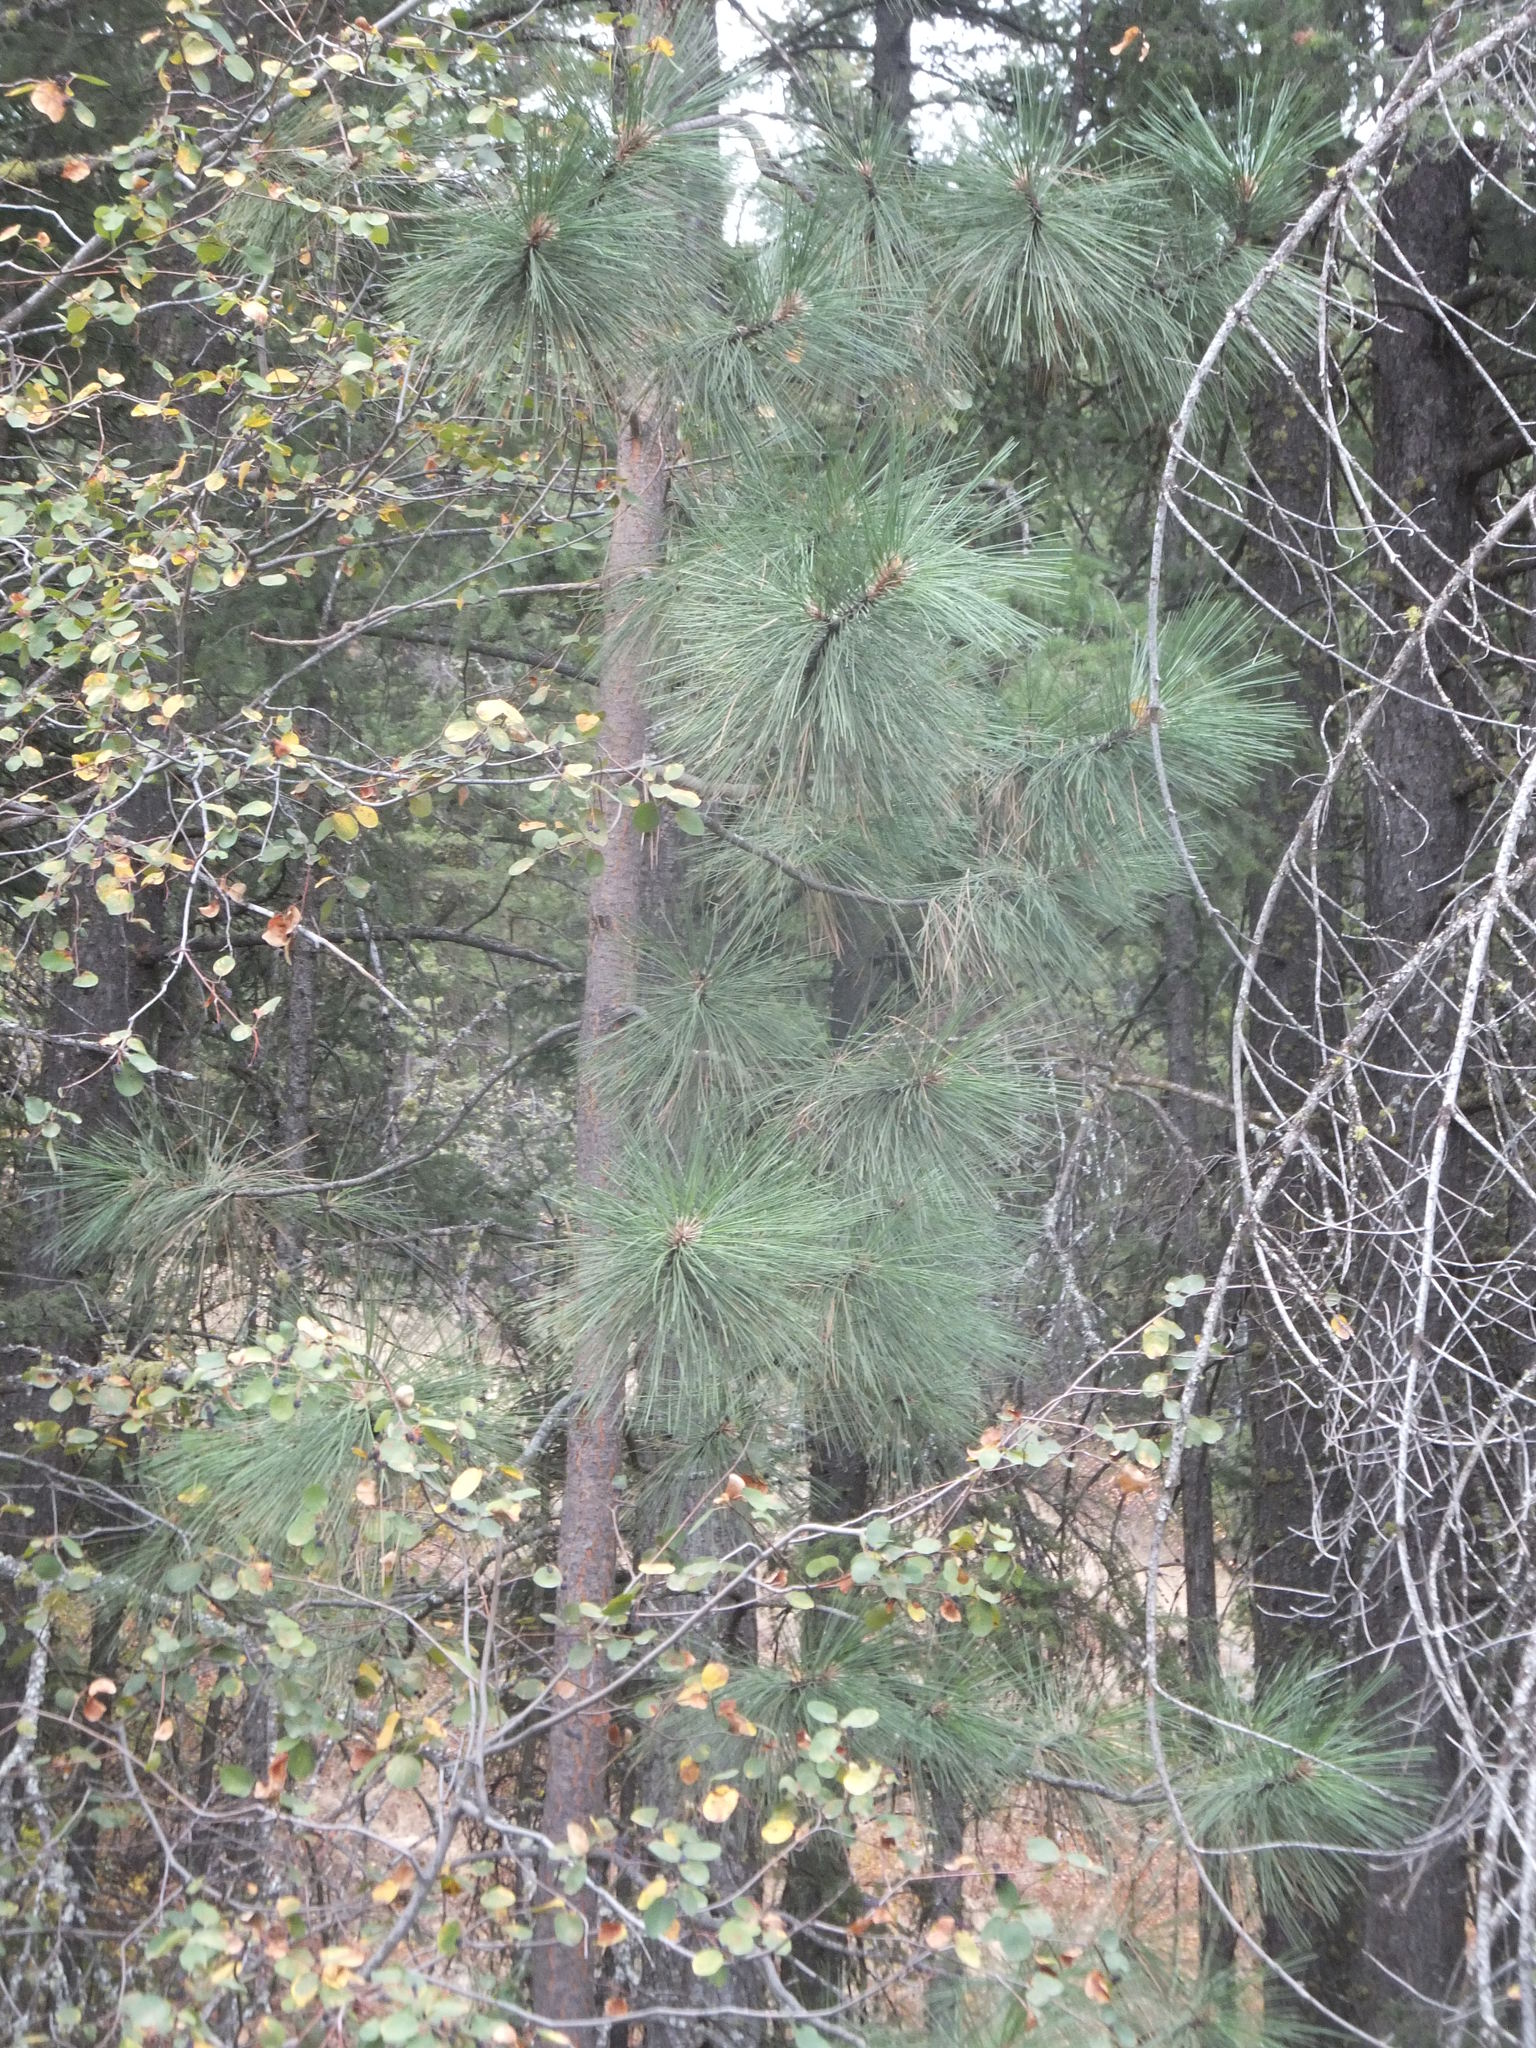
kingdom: Plantae
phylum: Tracheophyta
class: Pinopsida
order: Pinales
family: Pinaceae
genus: Pinus
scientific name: Pinus ponderosa
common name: Western yellow-pine
